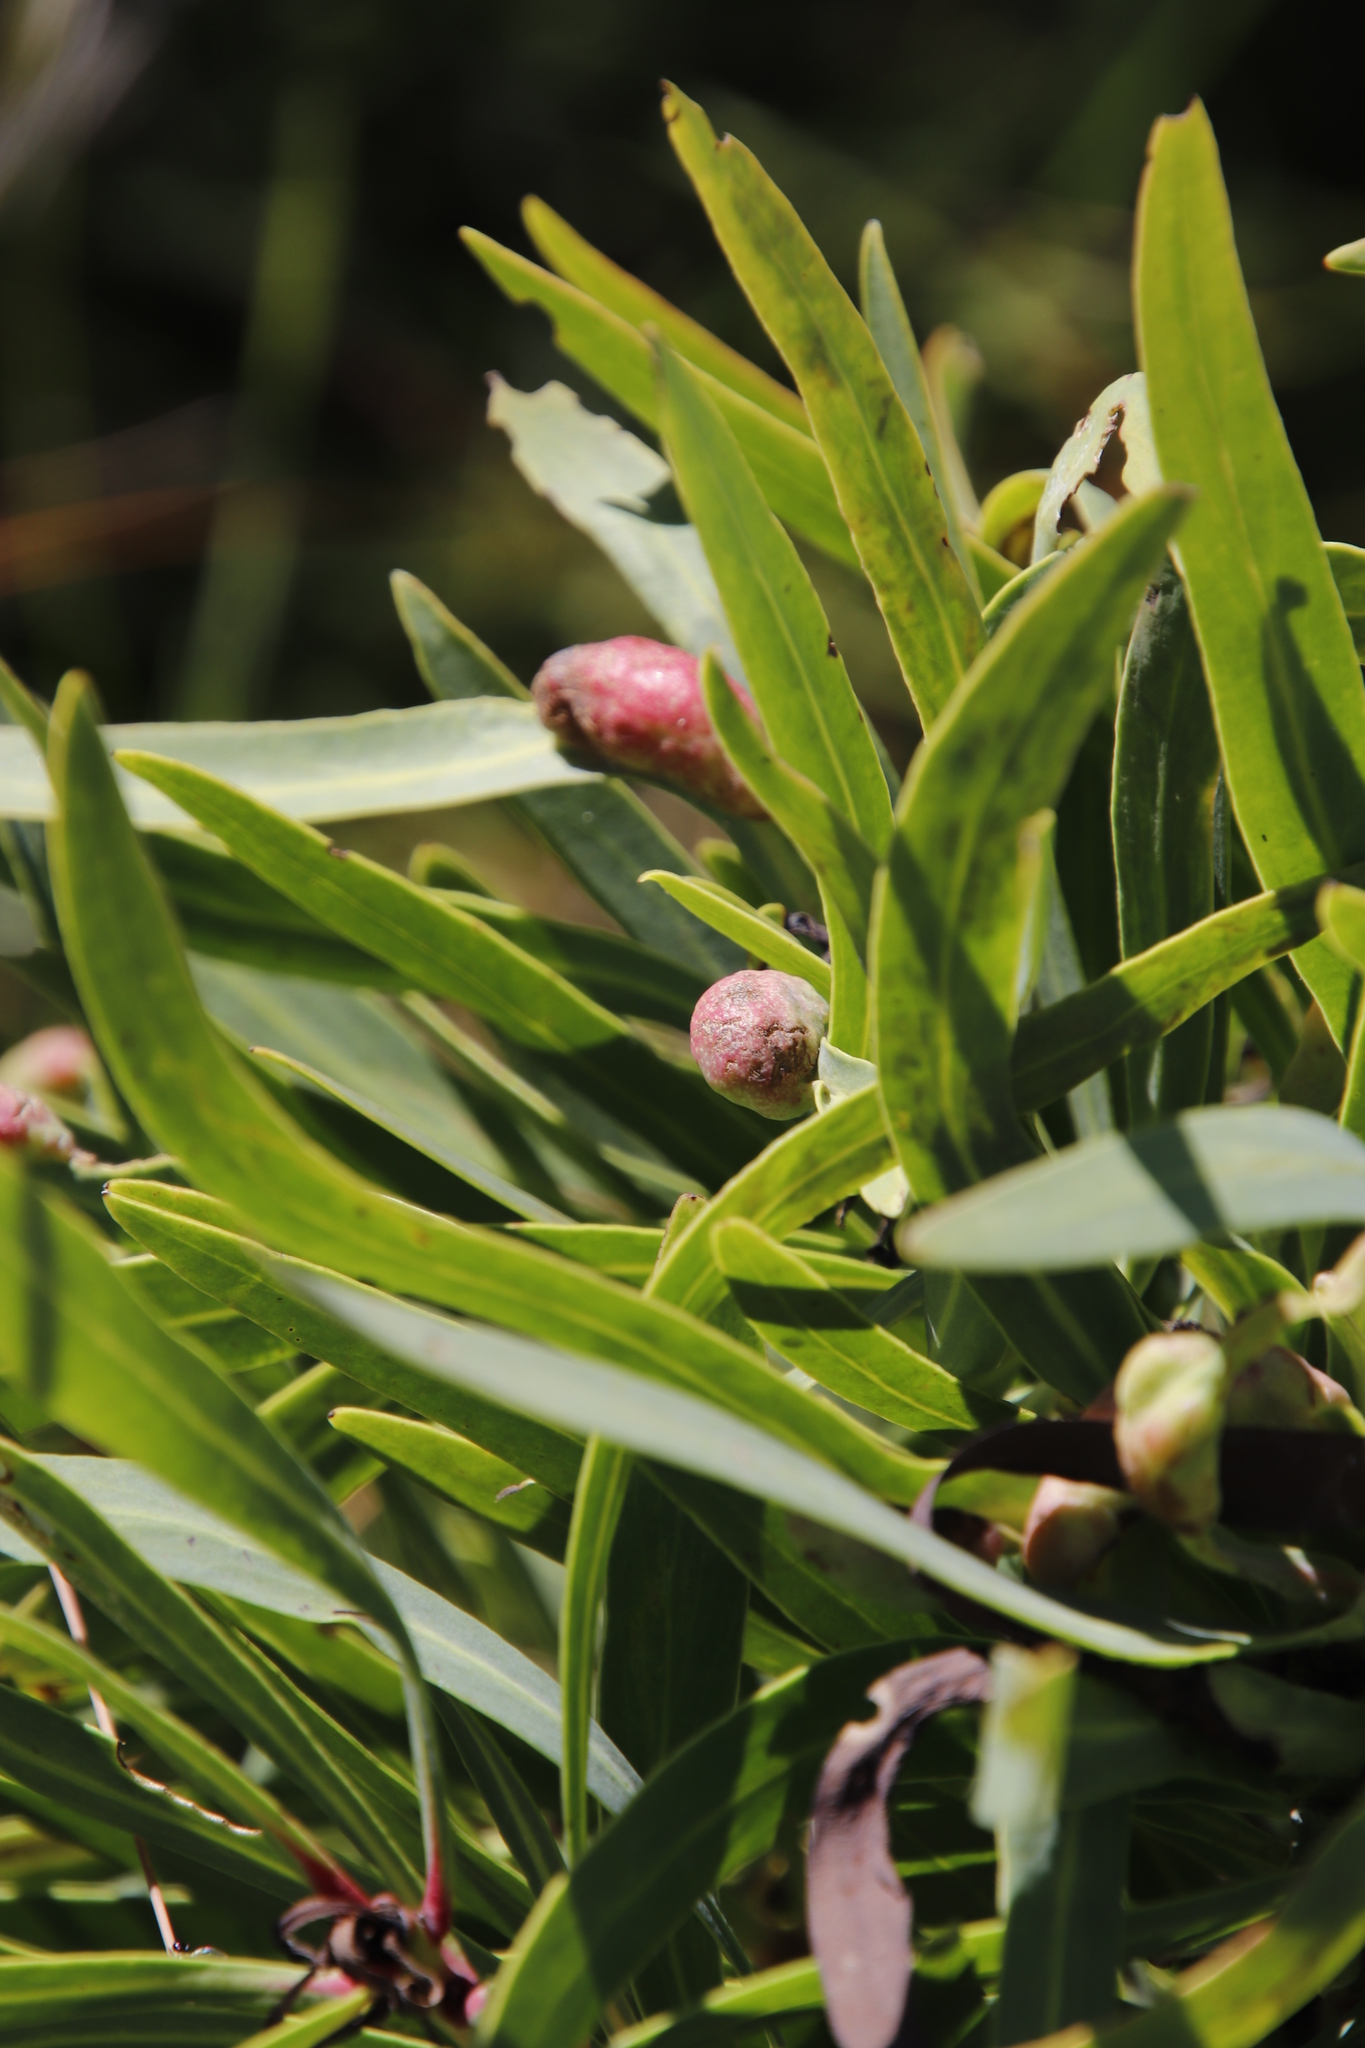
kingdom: Plantae
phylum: Tracheophyta
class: Magnoliopsida
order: Proteales
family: Proteaceae
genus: Protea
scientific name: Protea caffra
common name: Common sugarbush
